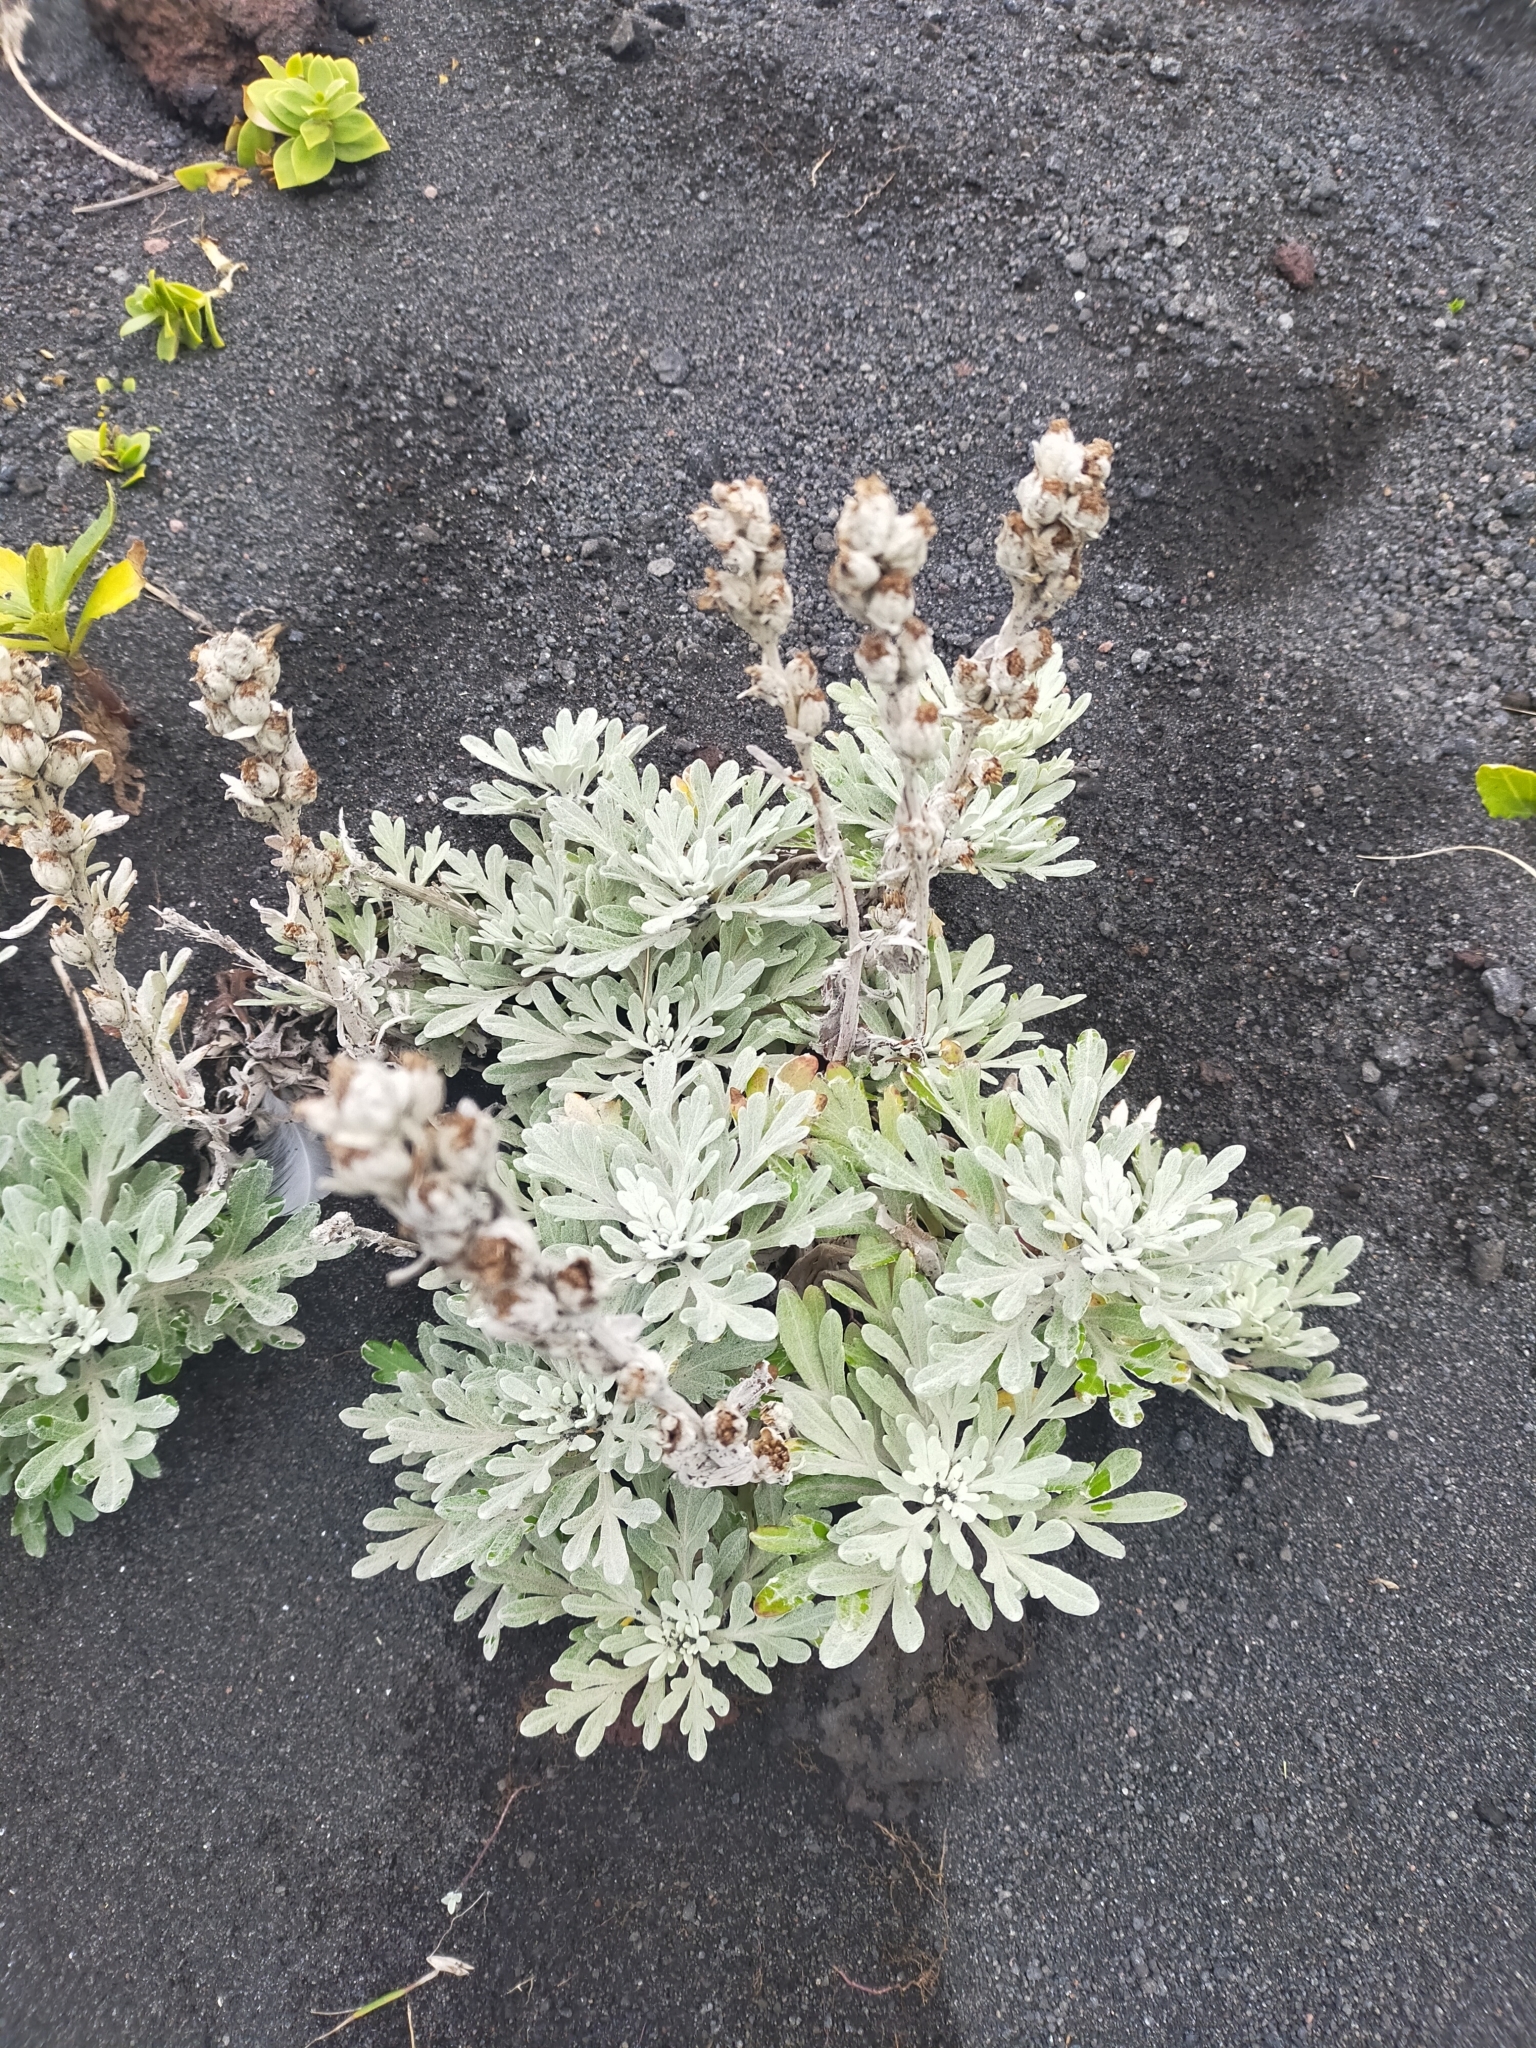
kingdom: Plantae
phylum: Tracheophyta
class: Magnoliopsida
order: Asterales
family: Asteraceae
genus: Artemisia
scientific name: Artemisia stelleriana
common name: Beach wormwood
